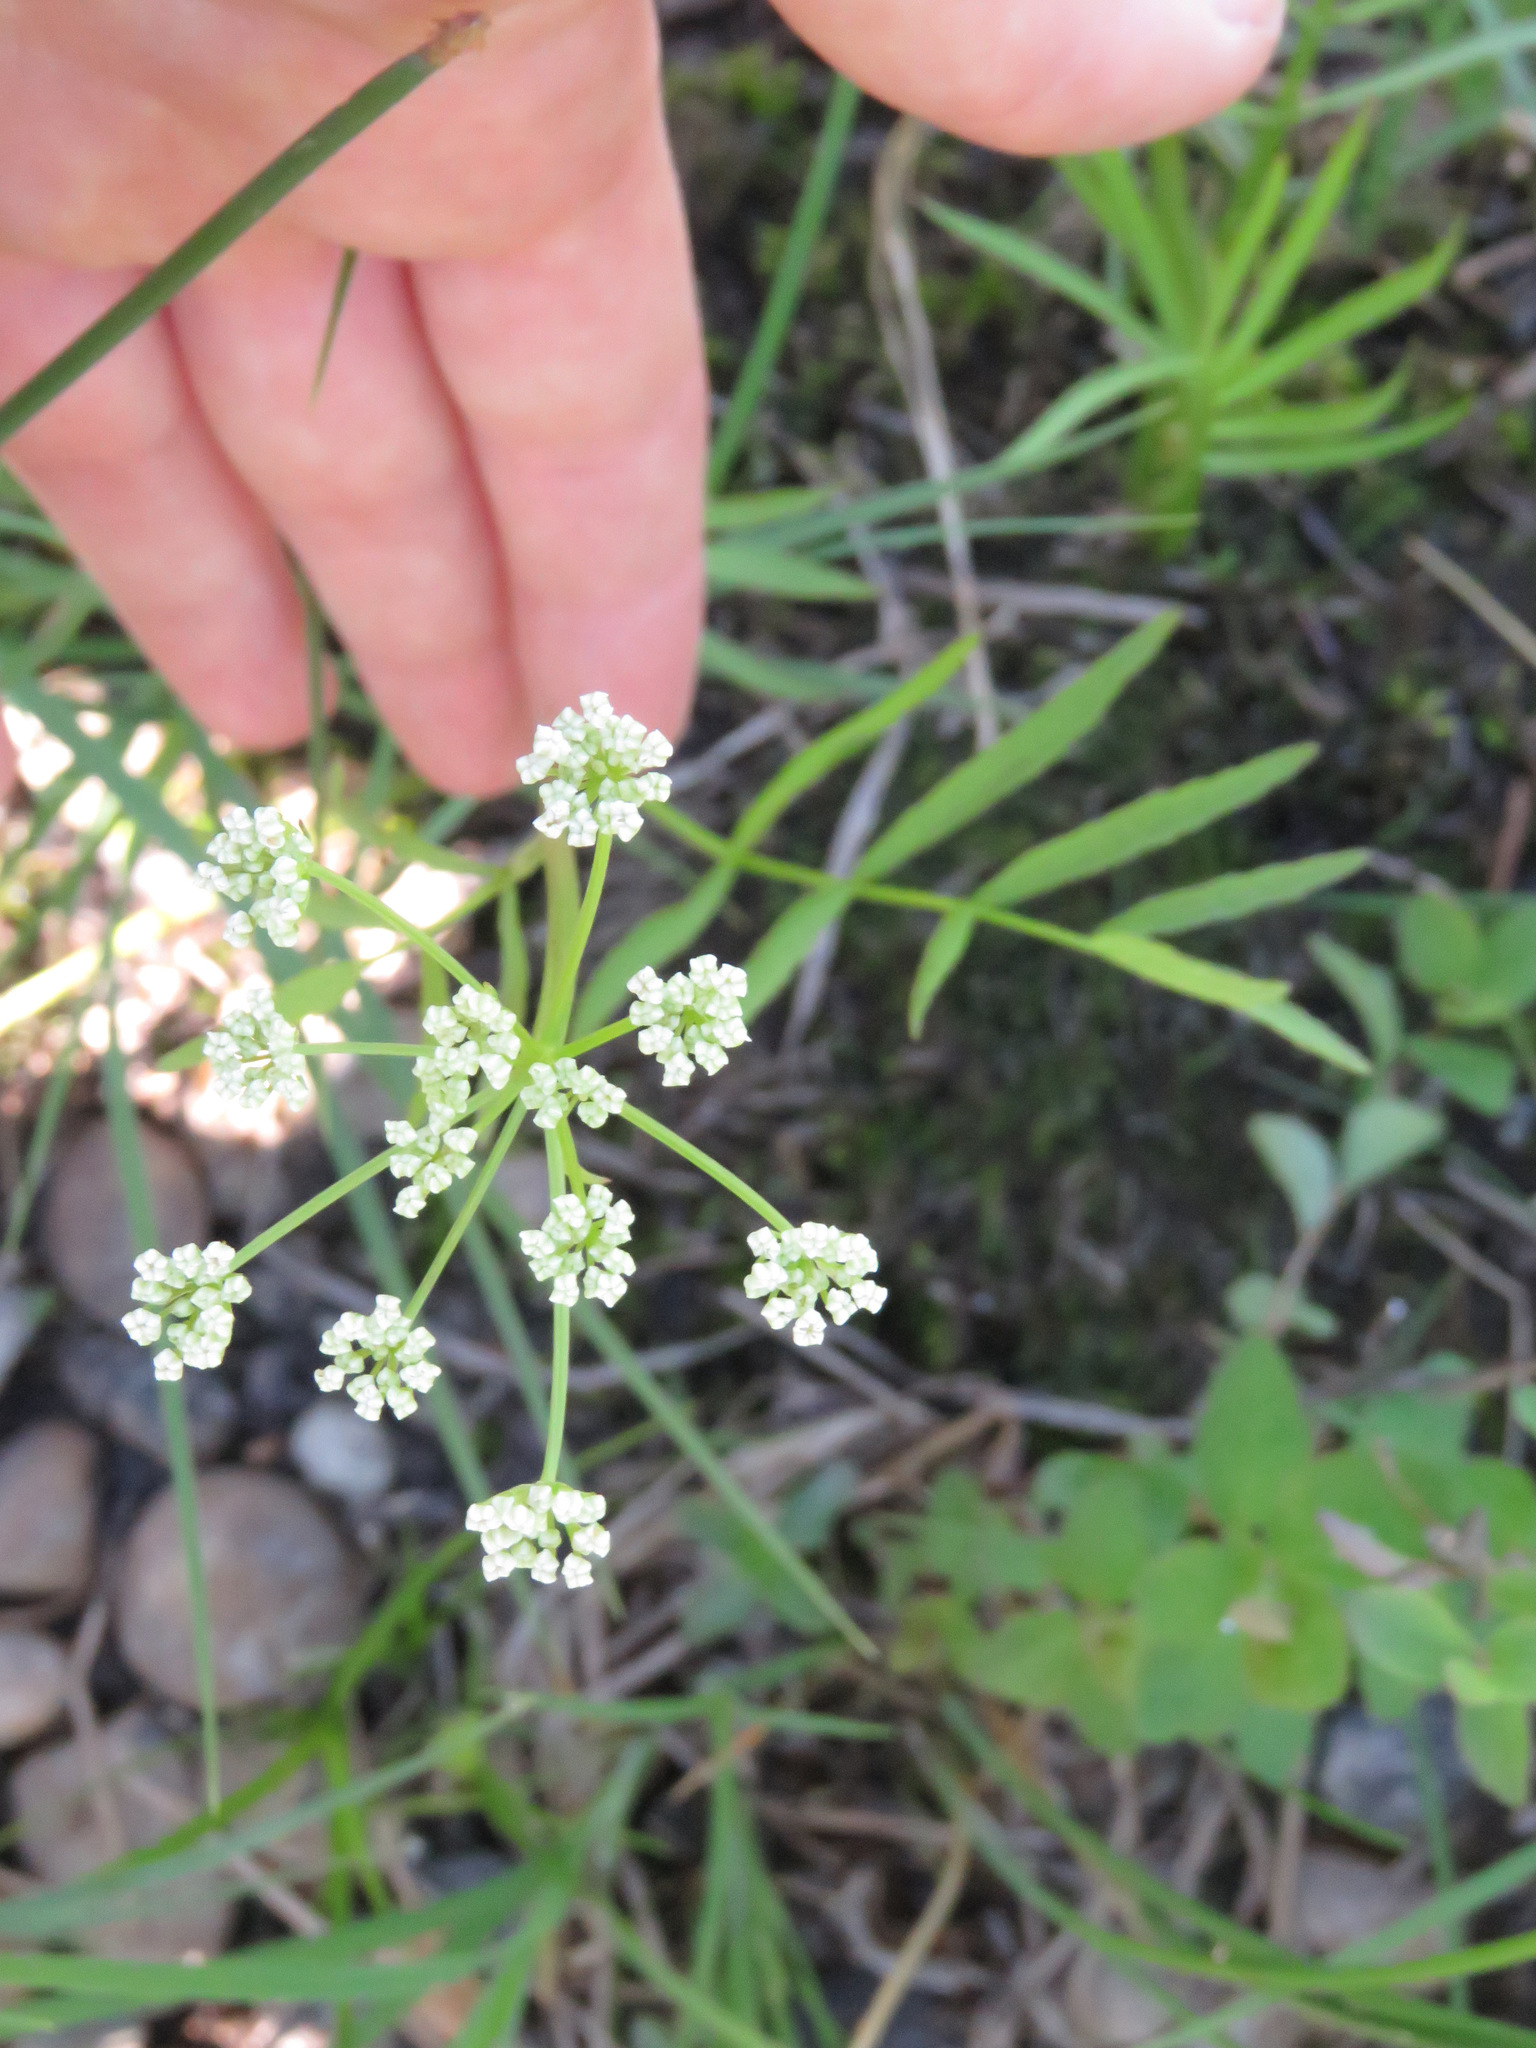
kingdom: Plantae
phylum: Tracheophyta
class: Magnoliopsida
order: Apiales
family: Apiaceae
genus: Sium
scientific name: Sium suave
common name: Hemlock water-parsnip
